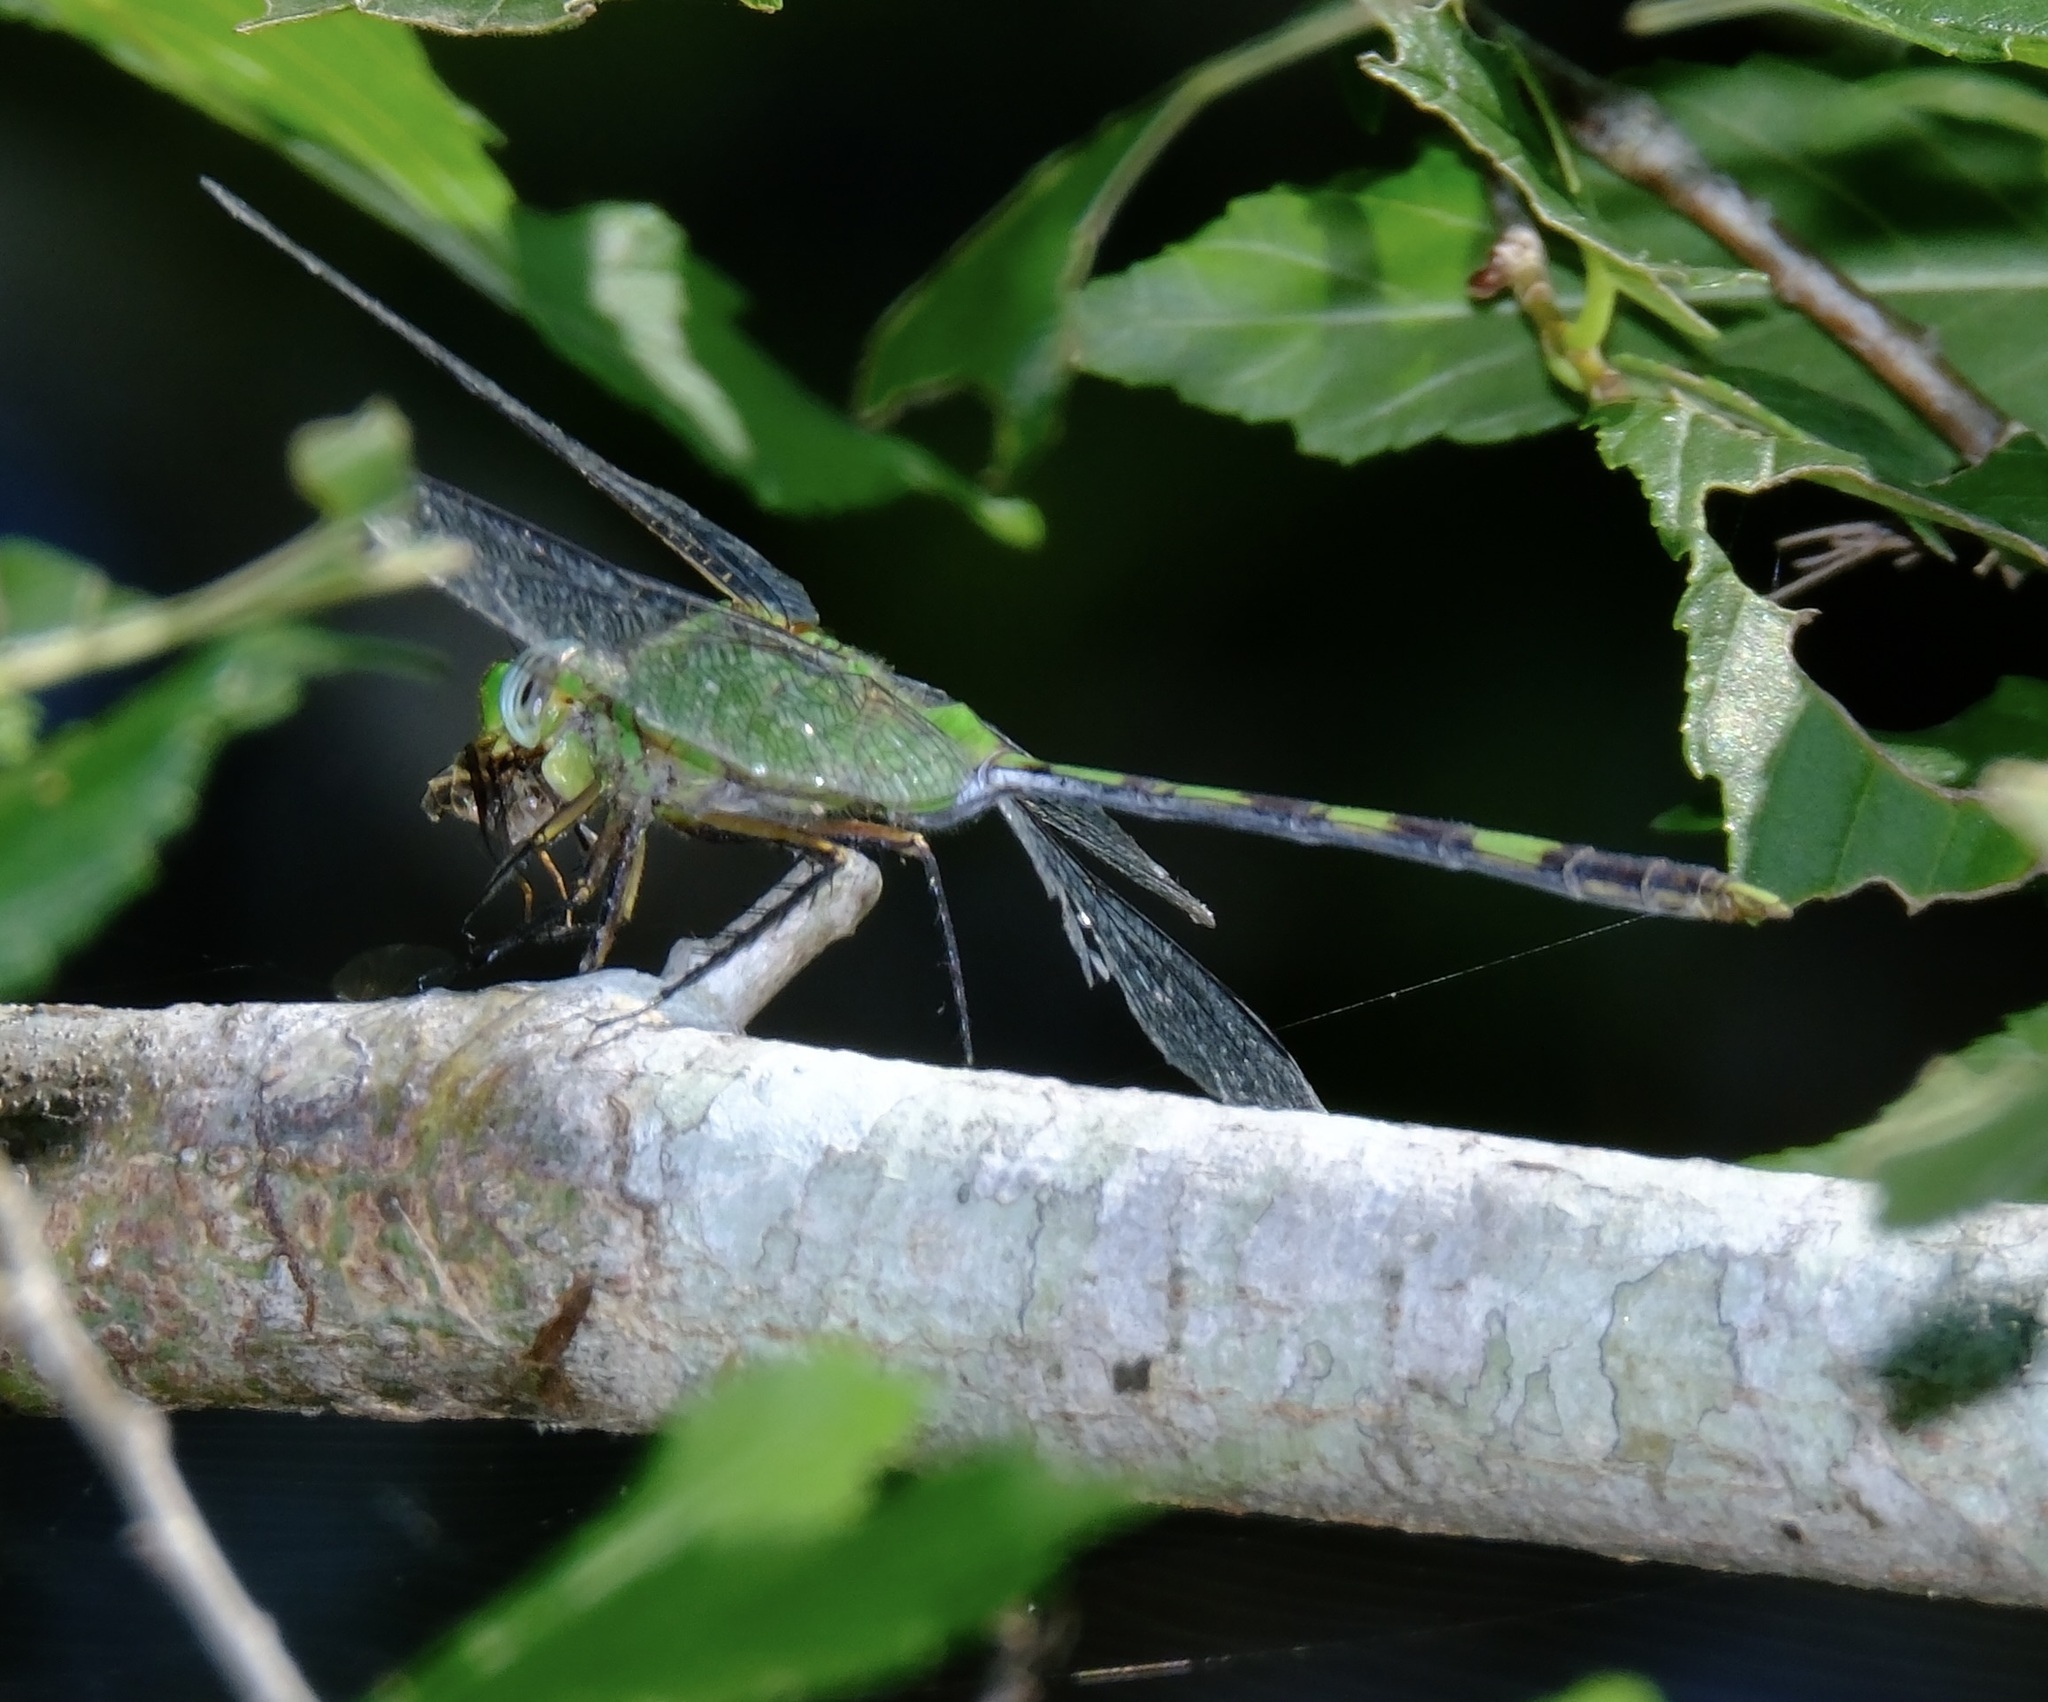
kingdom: Animalia
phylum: Arthropoda
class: Insecta
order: Odonata
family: Libellulidae
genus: Erythemis
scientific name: Erythemis vesiculosa
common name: Great pondhawk
